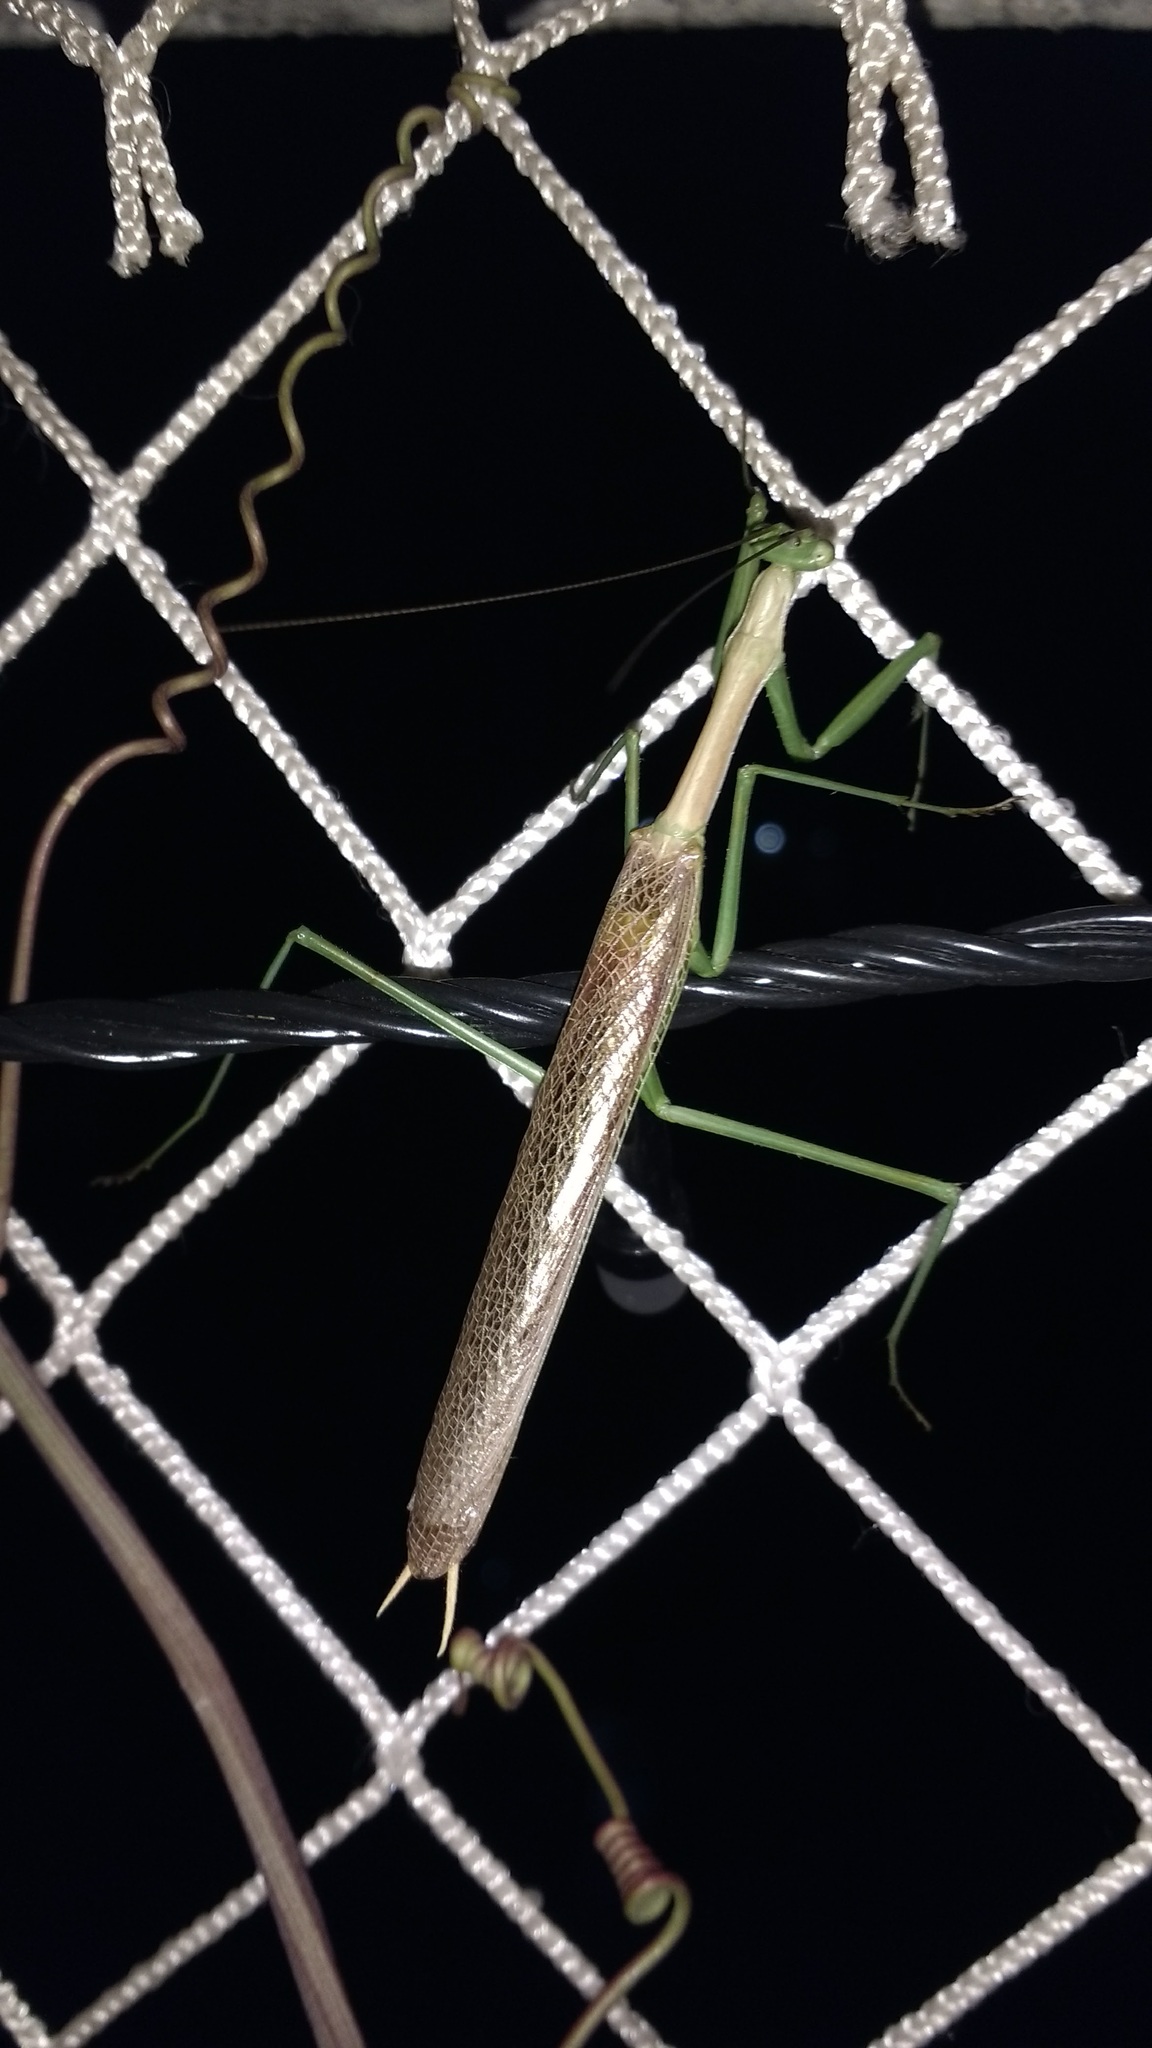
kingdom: Animalia
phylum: Arthropoda
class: Insecta
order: Mantodea
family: Coptopterygidae
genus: Coptopteryx
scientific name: Coptopteryx gayi
